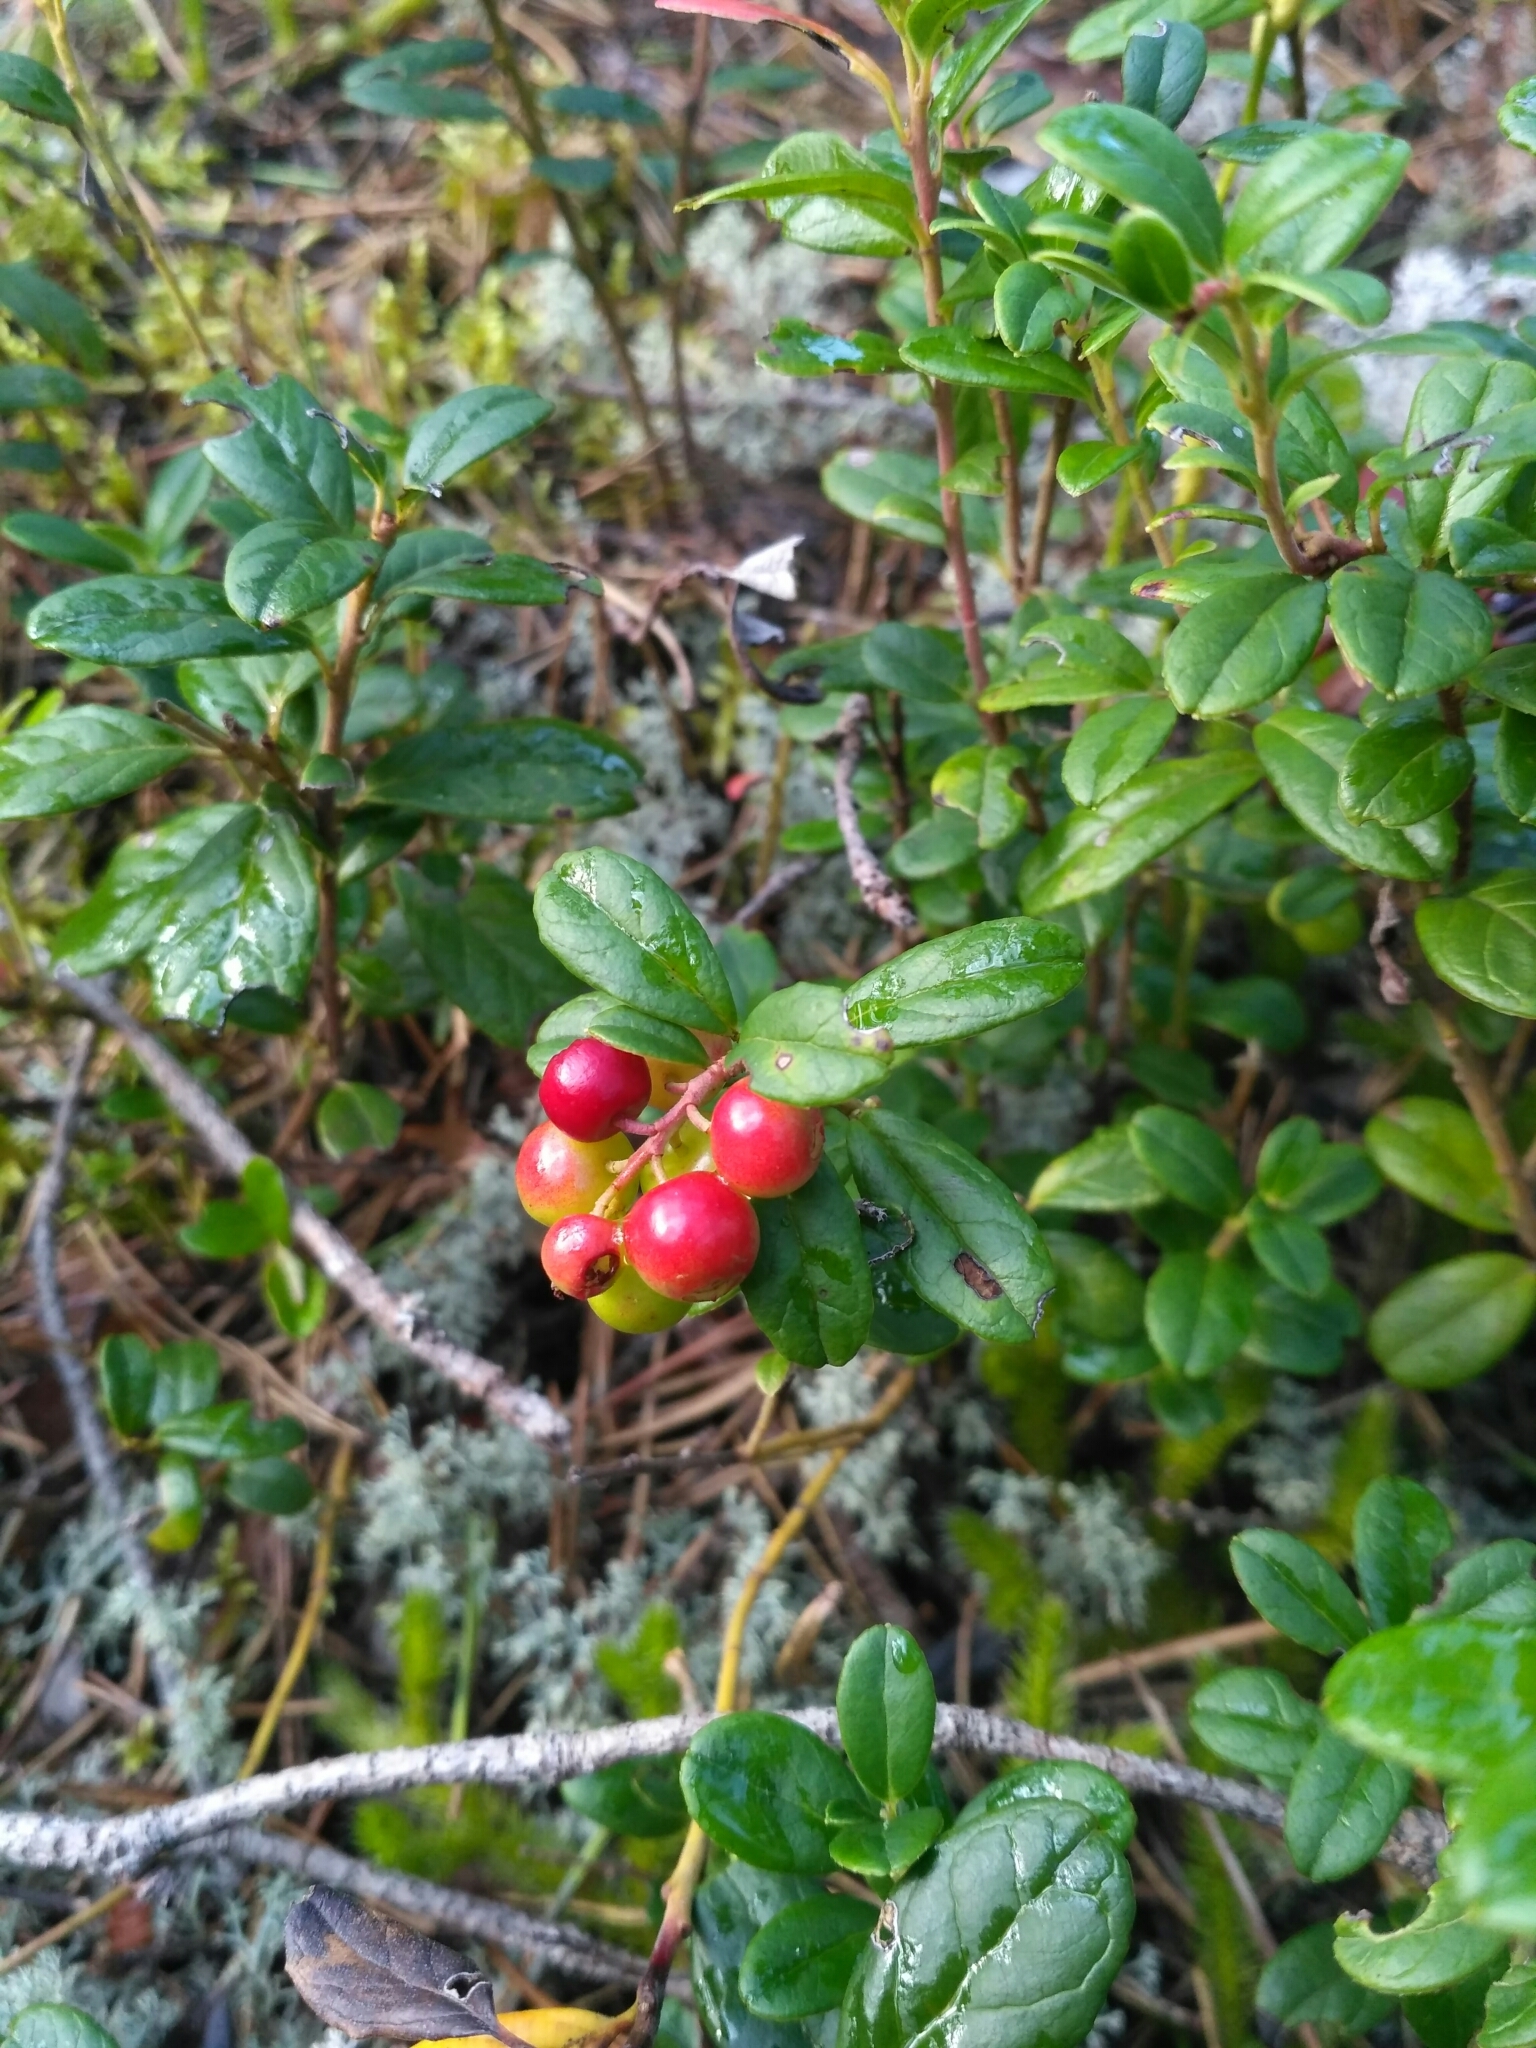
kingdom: Plantae
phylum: Tracheophyta
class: Magnoliopsida
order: Ericales
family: Ericaceae
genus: Vaccinium
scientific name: Vaccinium vitis-idaea
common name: Cowberry
